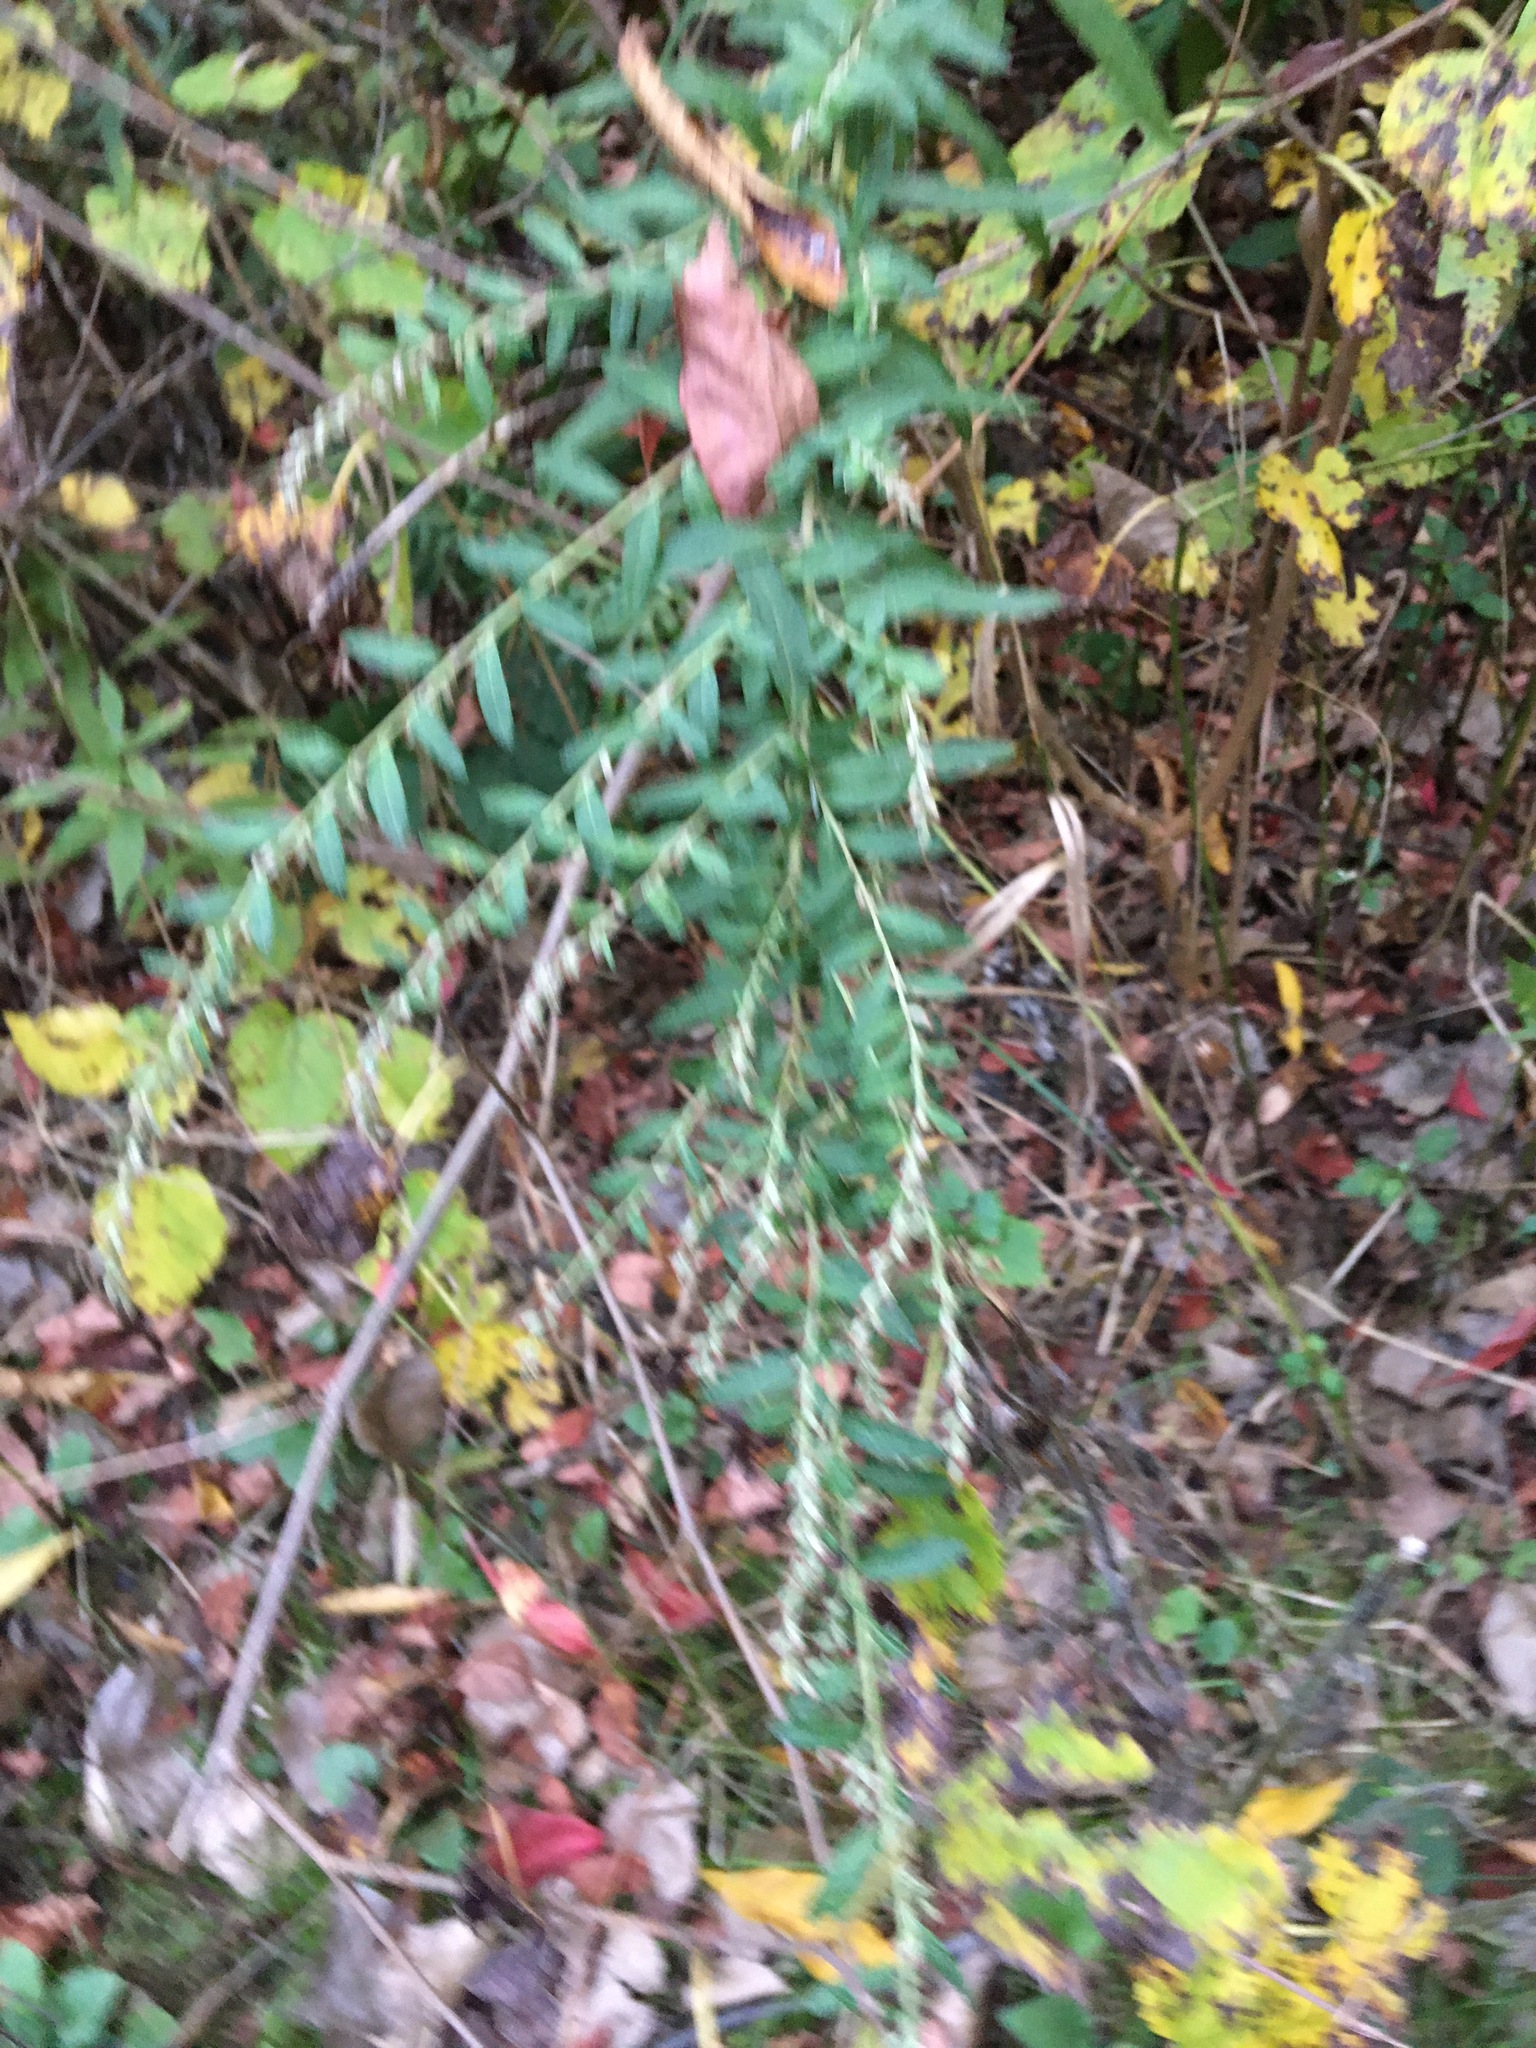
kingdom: Plantae
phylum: Tracheophyta
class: Magnoliopsida
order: Asterales
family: Asteraceae
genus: Artemisia
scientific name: Artemisia vulgaris
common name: Mugwort
